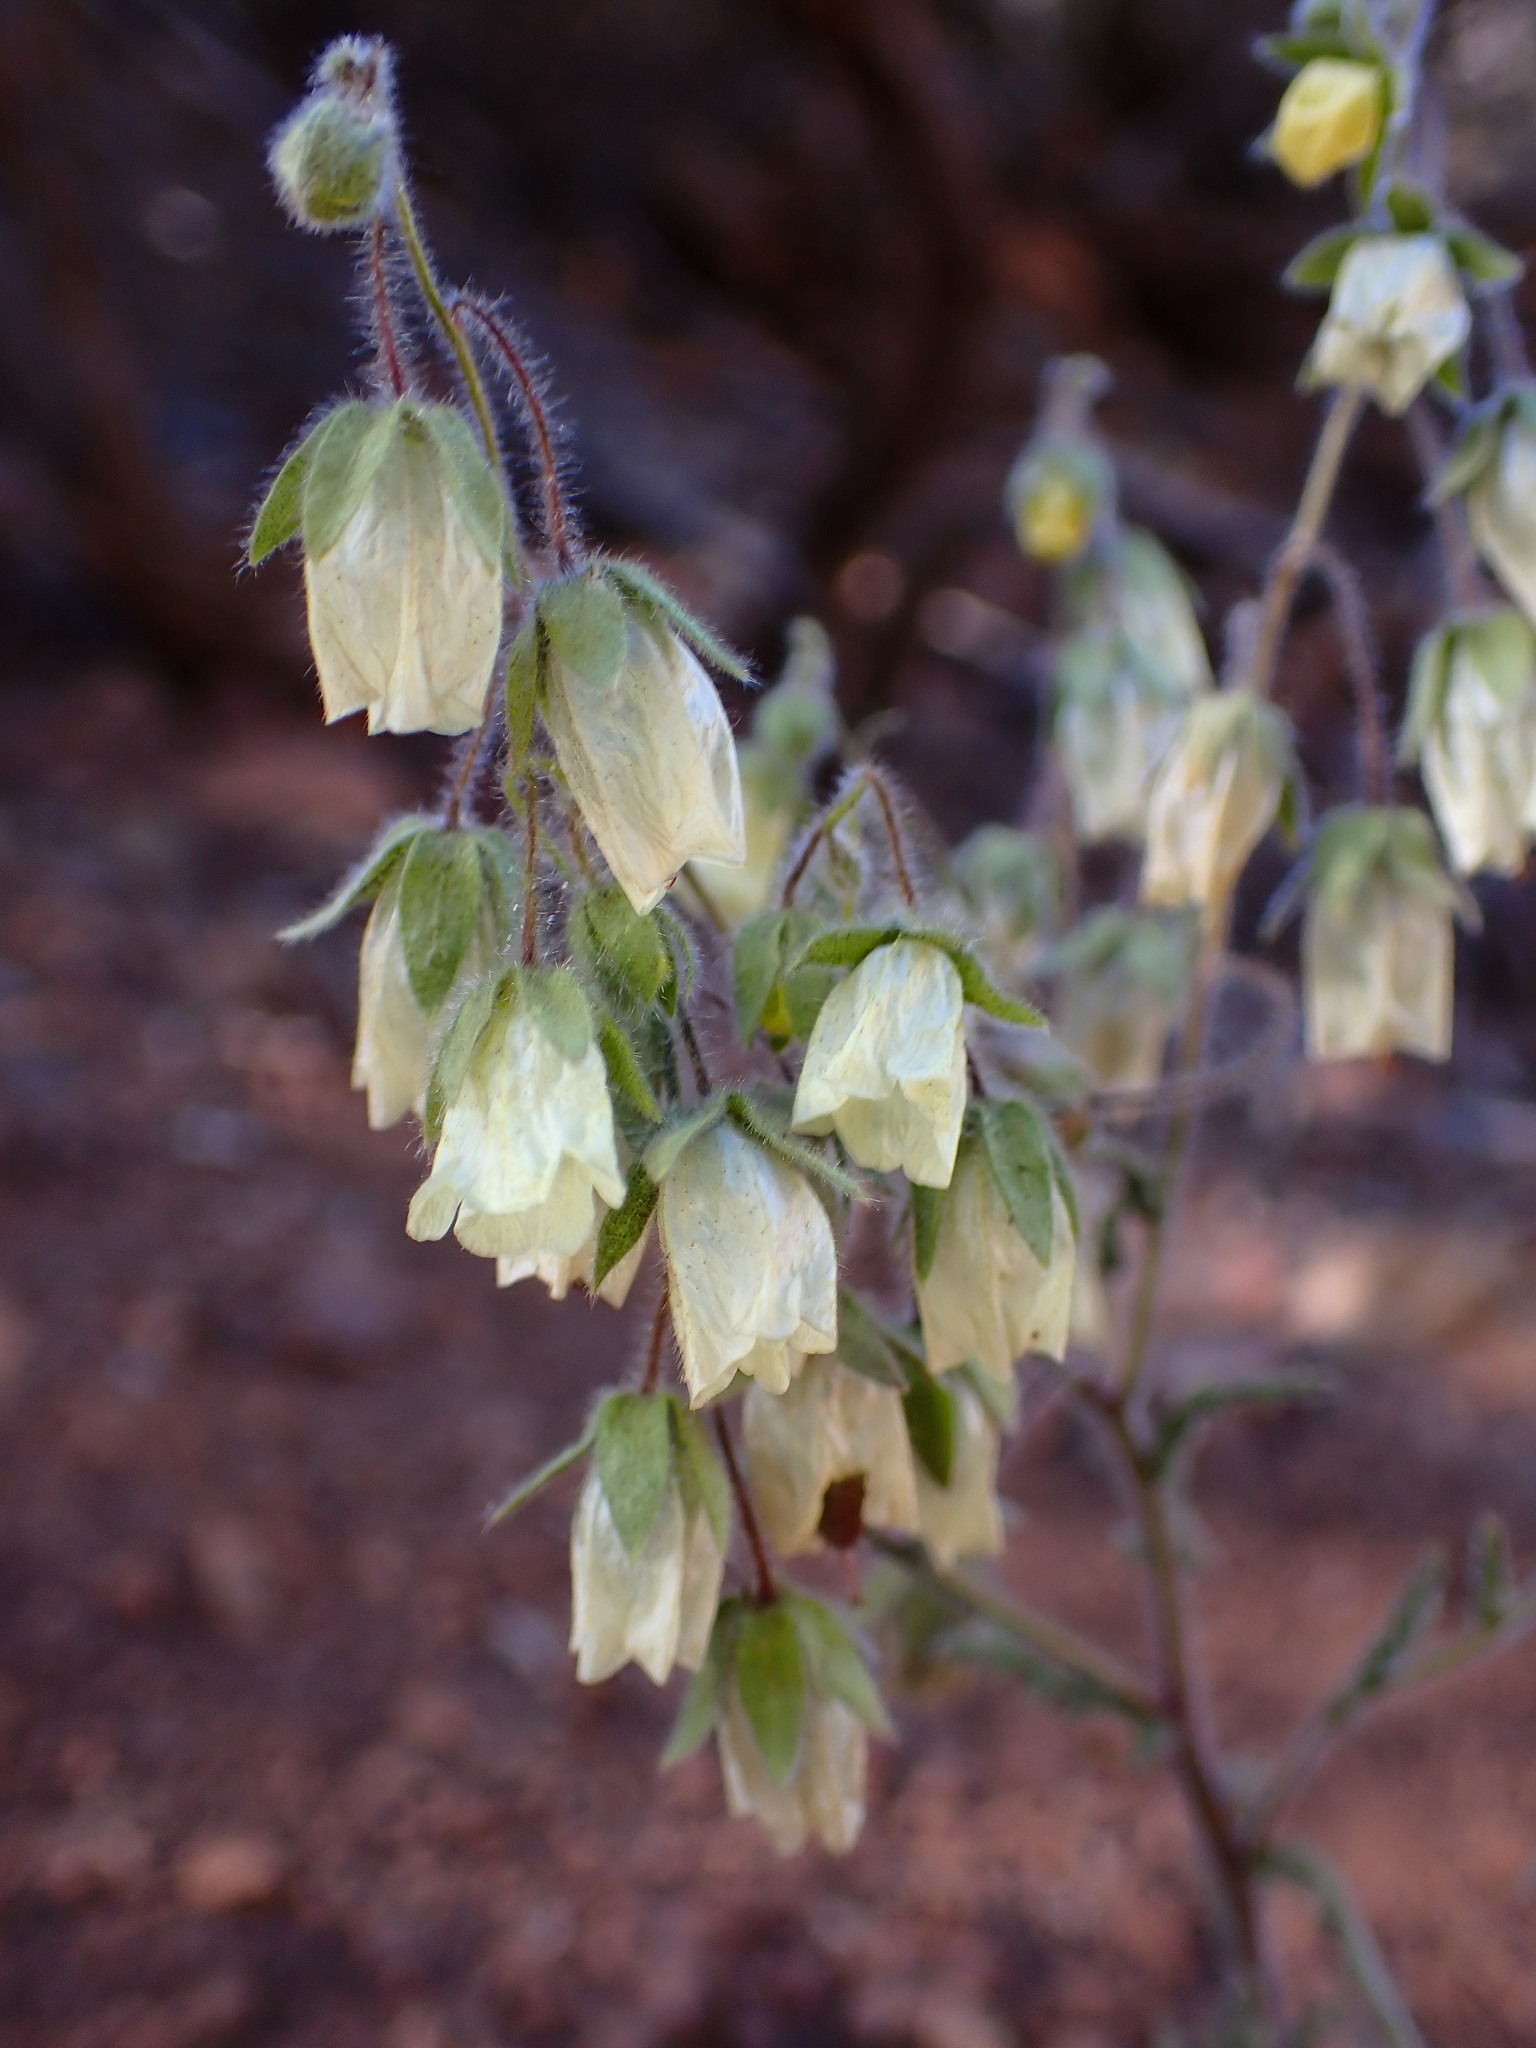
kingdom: Plantae
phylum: Tracheophyta
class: Magnoliopsida
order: Boraginales
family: Hydrophyllaceae
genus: Emmenanthe
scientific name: Emmenanthe penduliflora
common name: Whispering-bells
